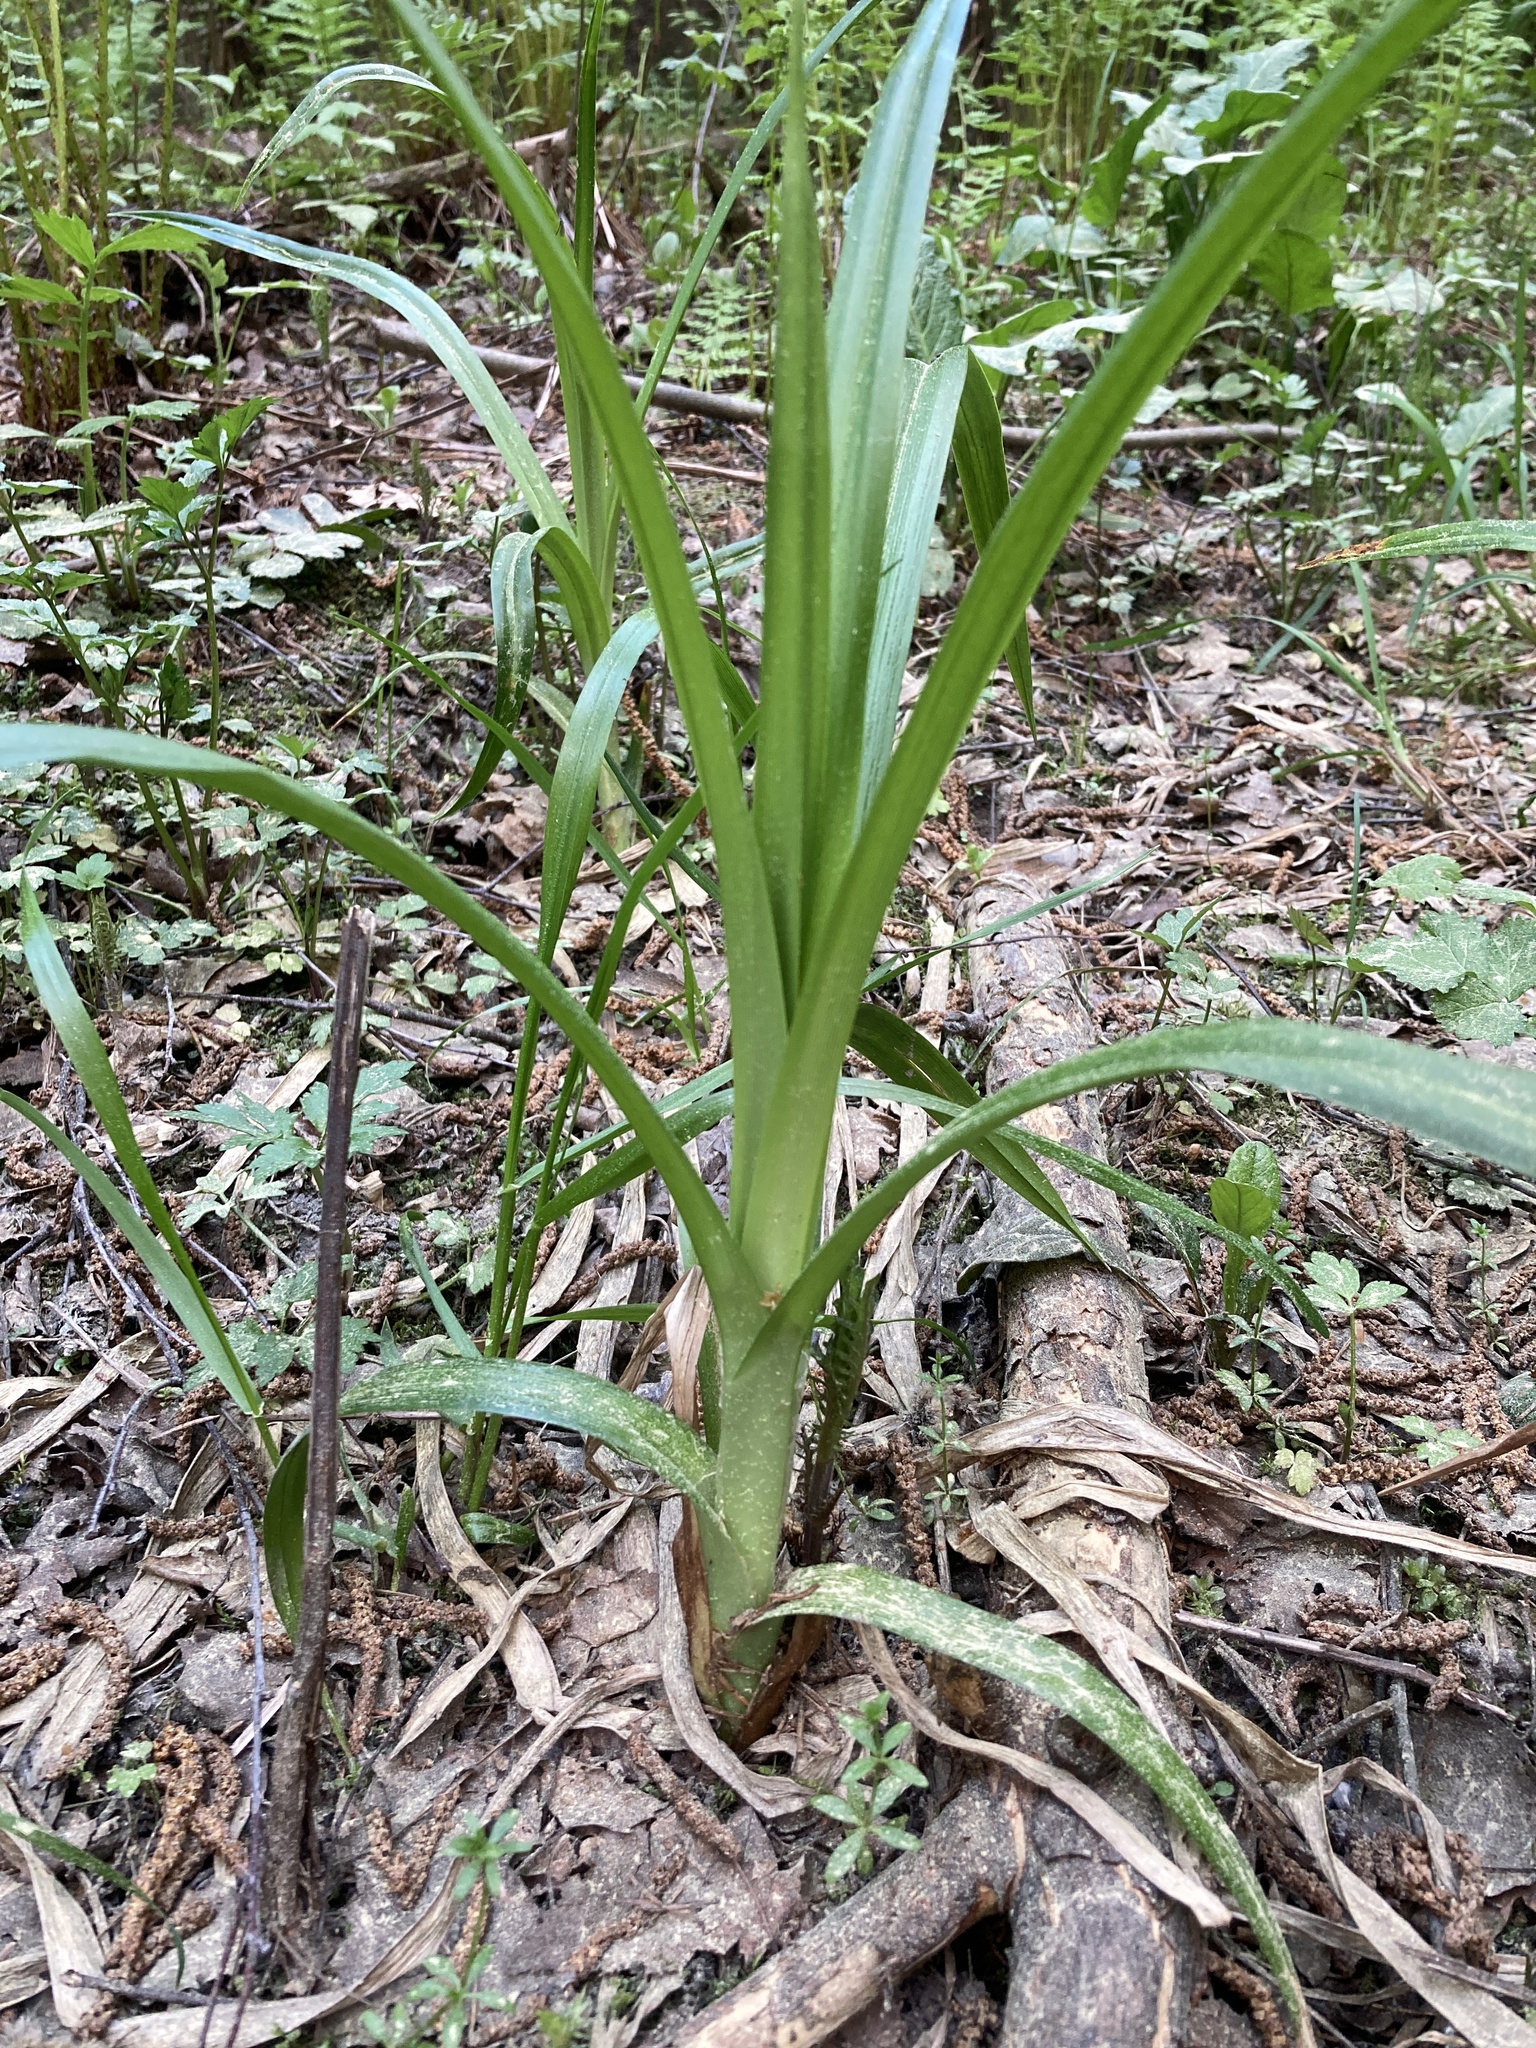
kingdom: Plantae
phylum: Tracheophyta
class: Liliopsida
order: Poales
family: Cyperaceae
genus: Scirpus
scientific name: Scirpus sylvaticus
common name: Wood club-rush
